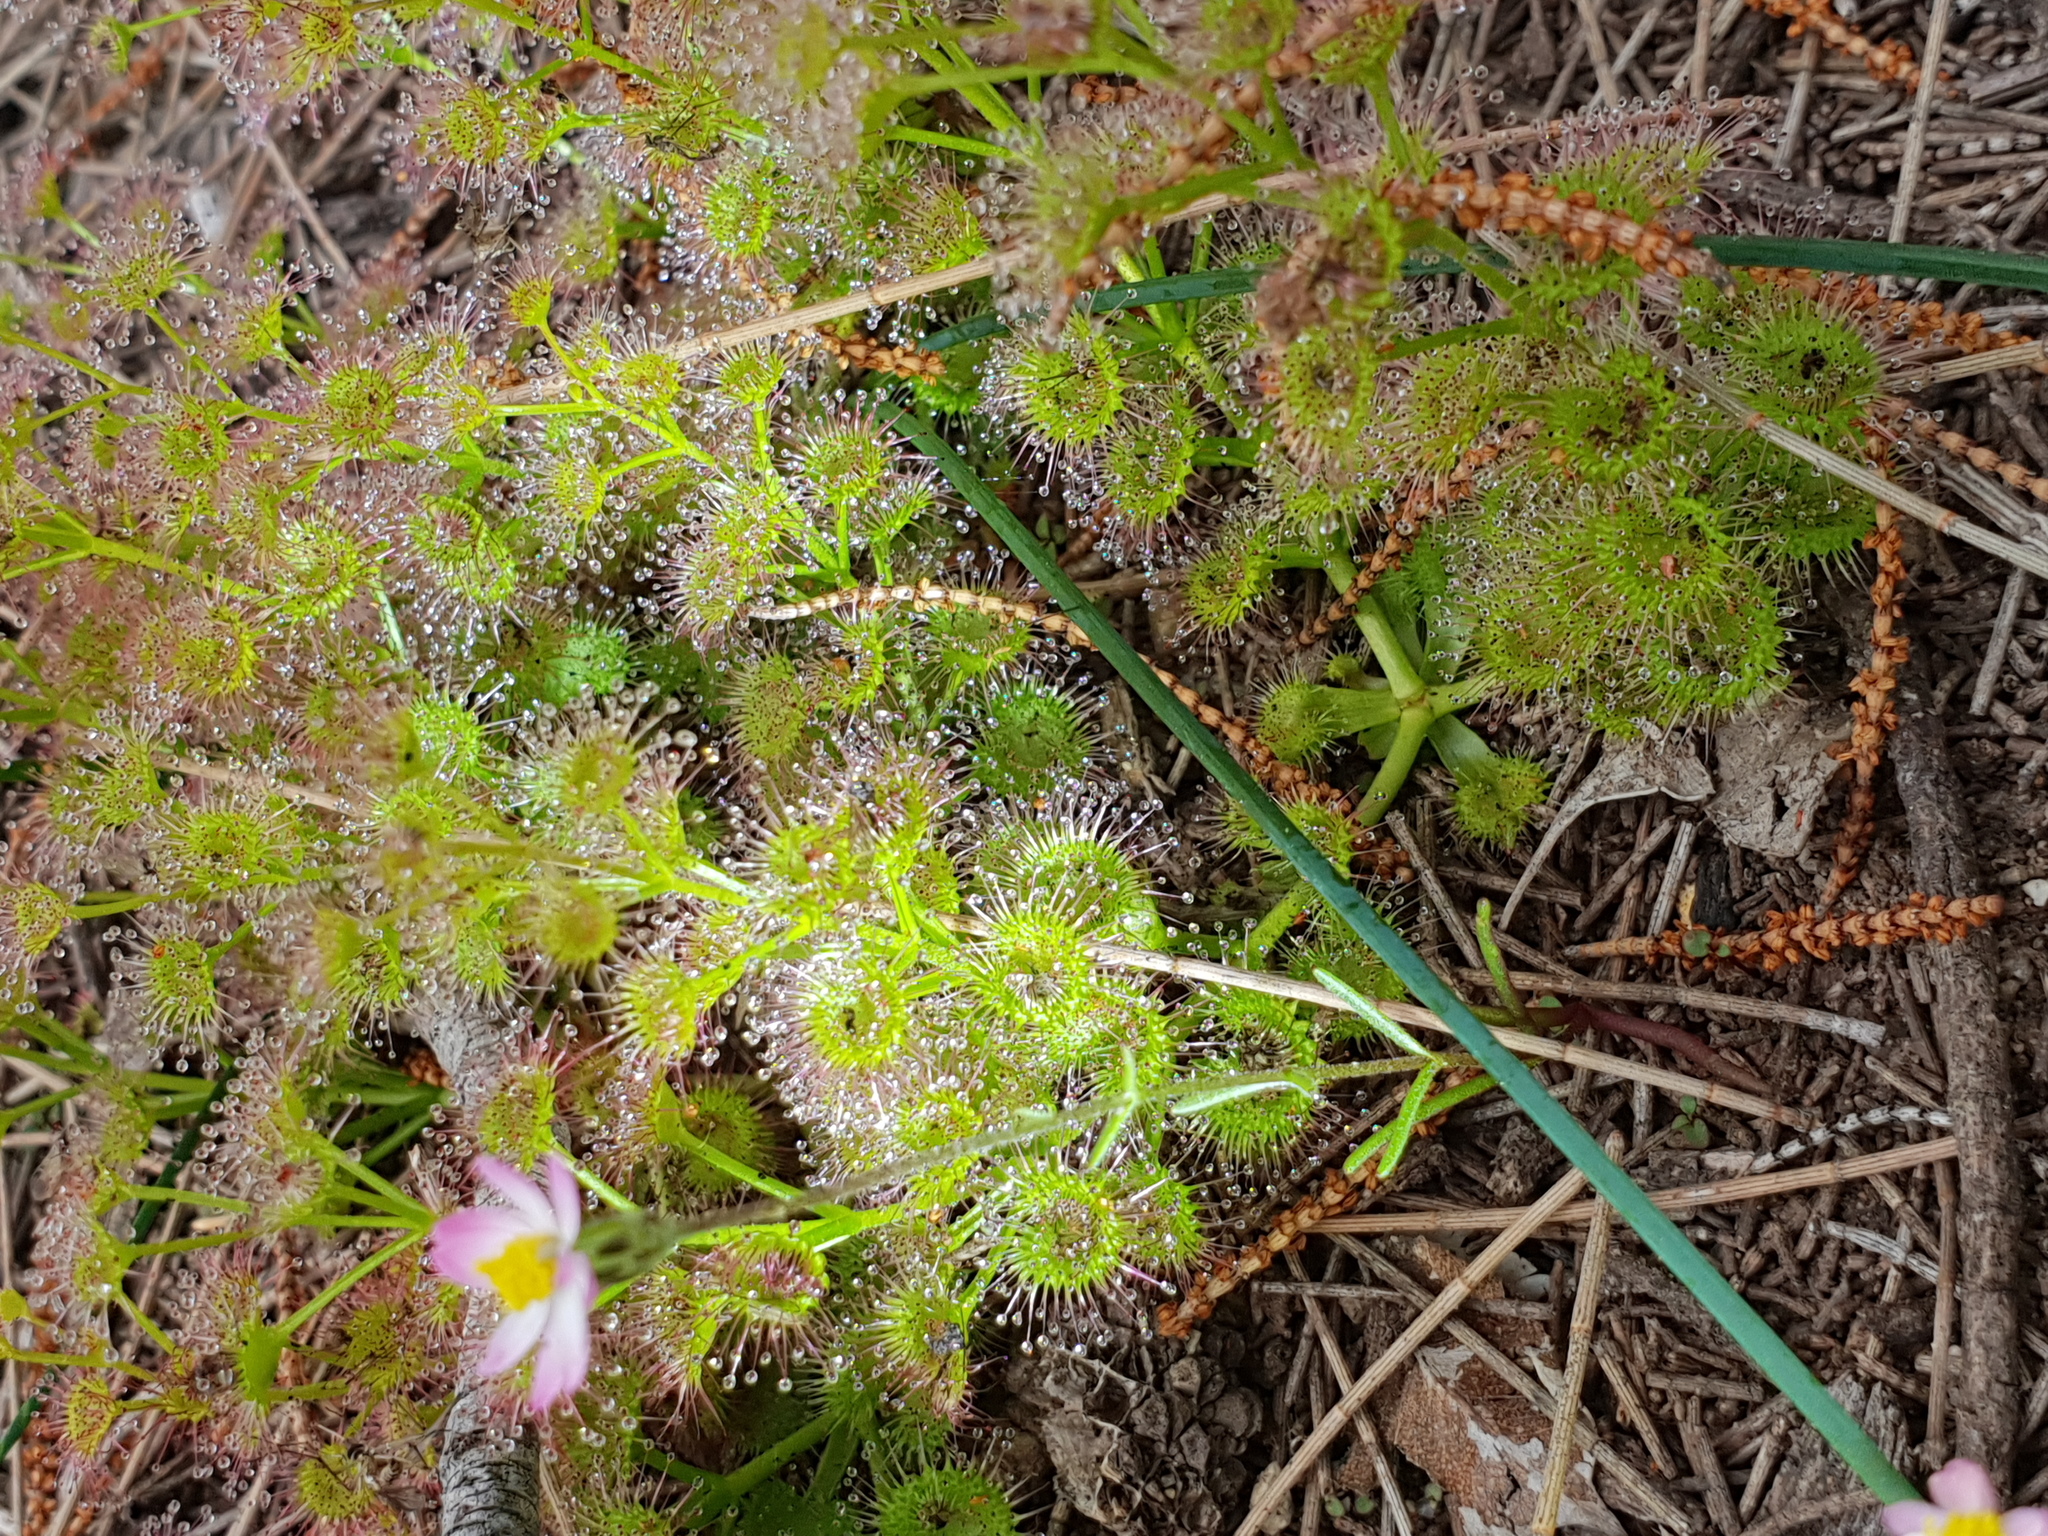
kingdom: Plantae
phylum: Tracheophyta
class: Magnoliopsida
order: Caryophyllales
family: Droseraceae
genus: Drosera
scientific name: Drosera stolonifera
